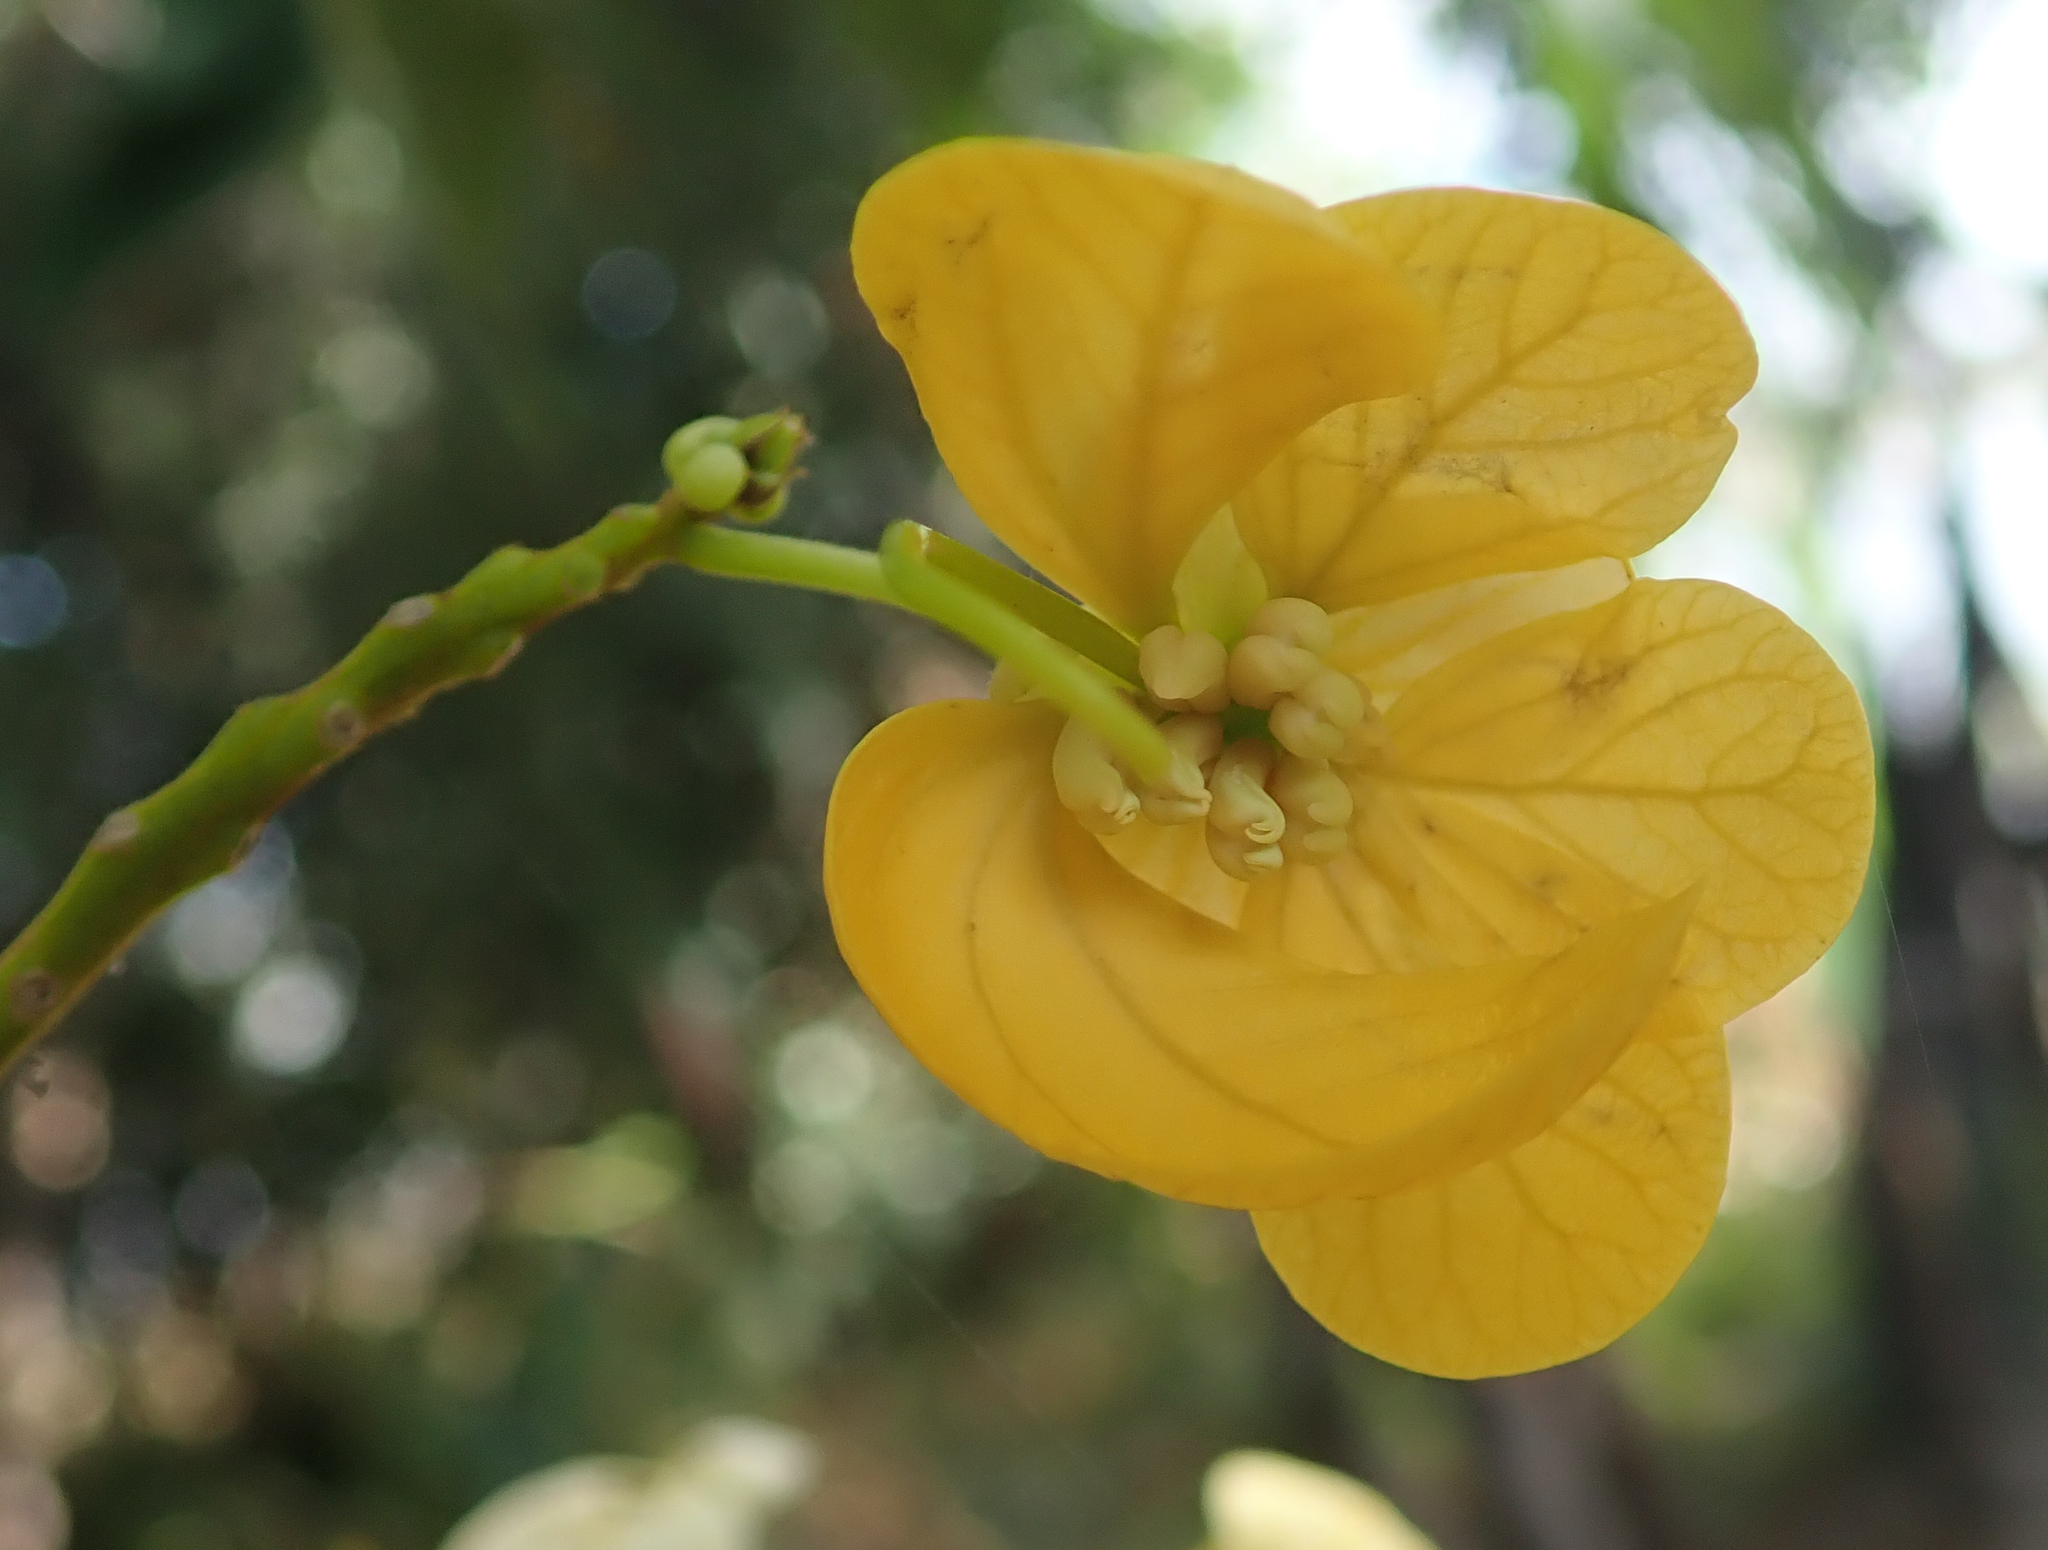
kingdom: Plantae
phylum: Tracheophyta
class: Magnoliopsida
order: Fabales
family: Fabaceae
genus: Senna
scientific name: Senna spectabilis
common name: Casia amarilla
